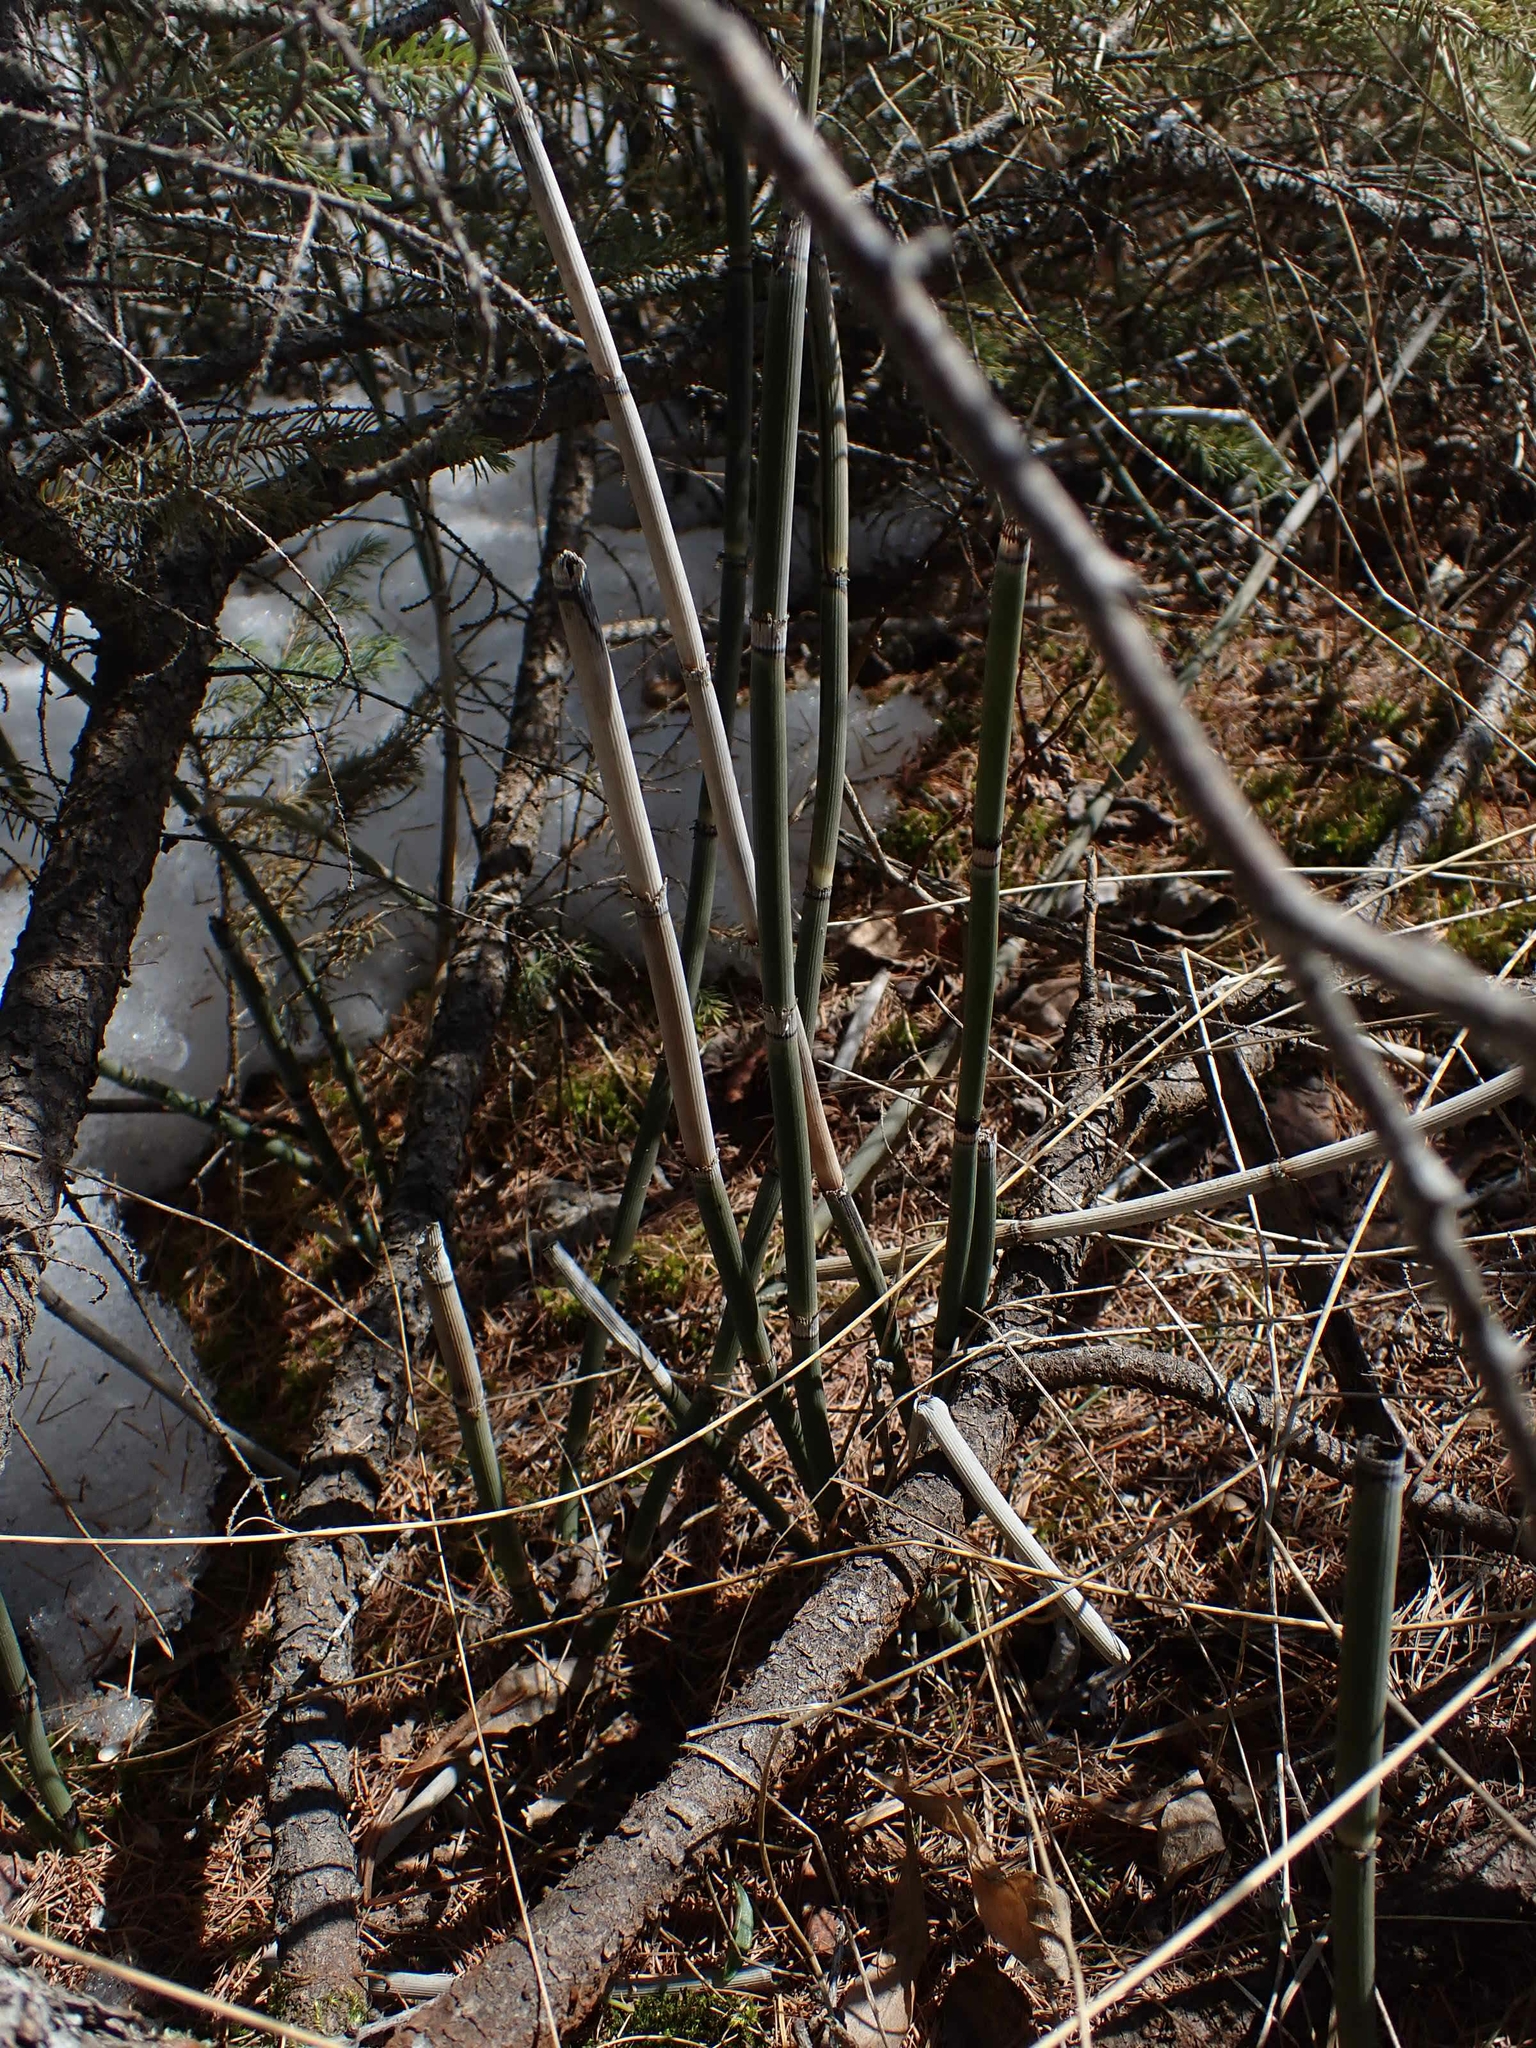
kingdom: Plantae
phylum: Tracheophyta
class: Polypodiopsida
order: Equisetales
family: Equisetaceae
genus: Equisetum
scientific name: Equisetum praealtum
